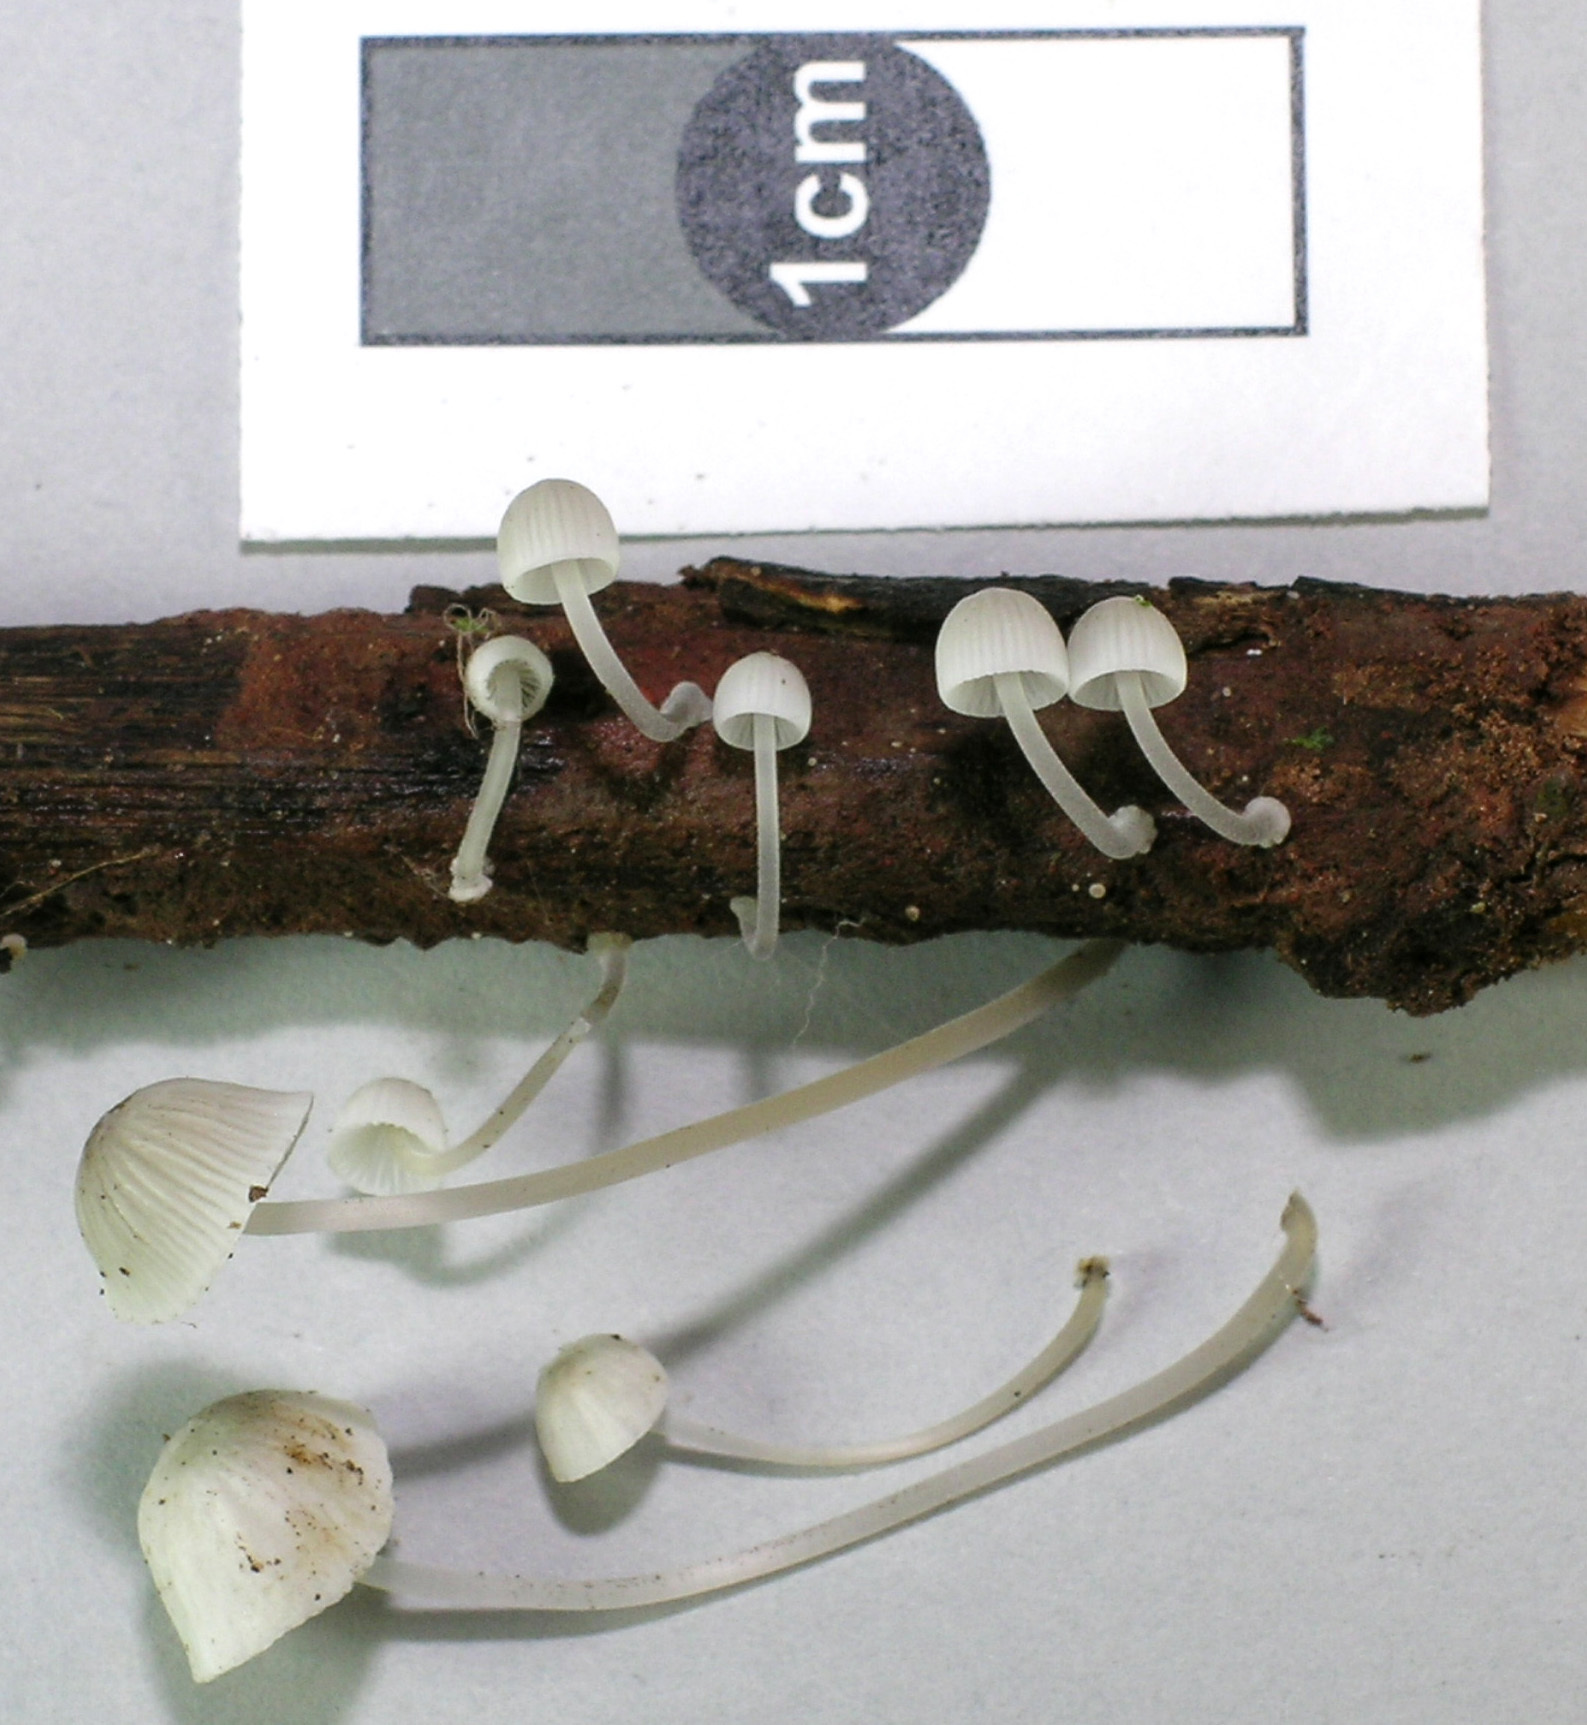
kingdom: Fungi
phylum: Basidiomycota
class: Agaricomycetes
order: Agaricales
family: Mycenaceae
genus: Mycena
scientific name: Mycena subdebilis
